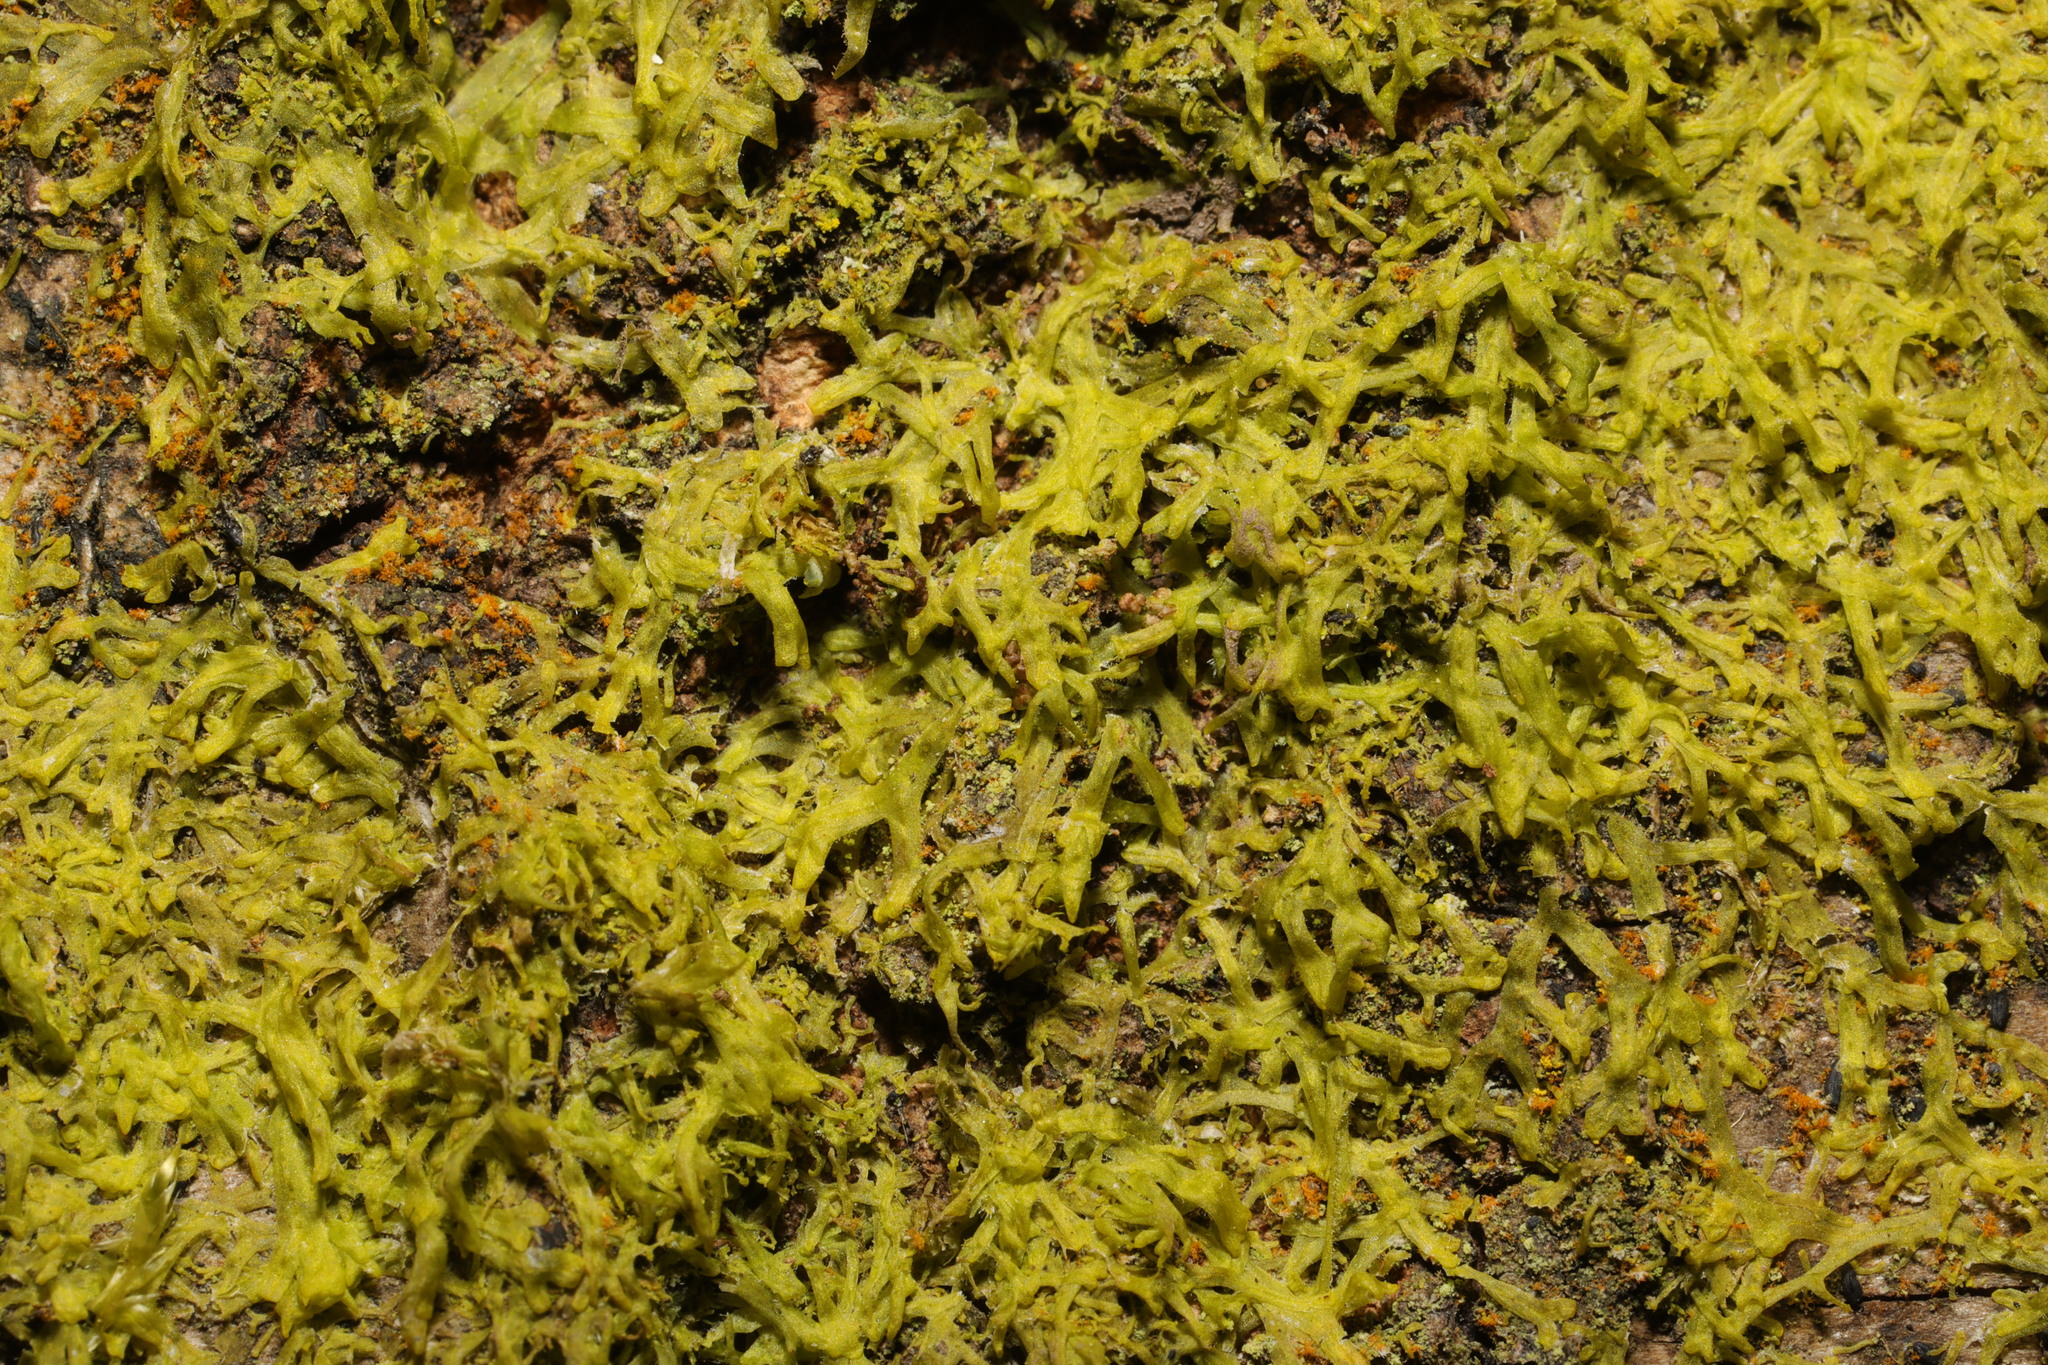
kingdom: Plantae
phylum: Marchantiophyta
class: Jungermanniopsida
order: Metzgeriales
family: Metzgeriaceae
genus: Metzgeria
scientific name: Metzgeria furcata
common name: Forked veilwort
